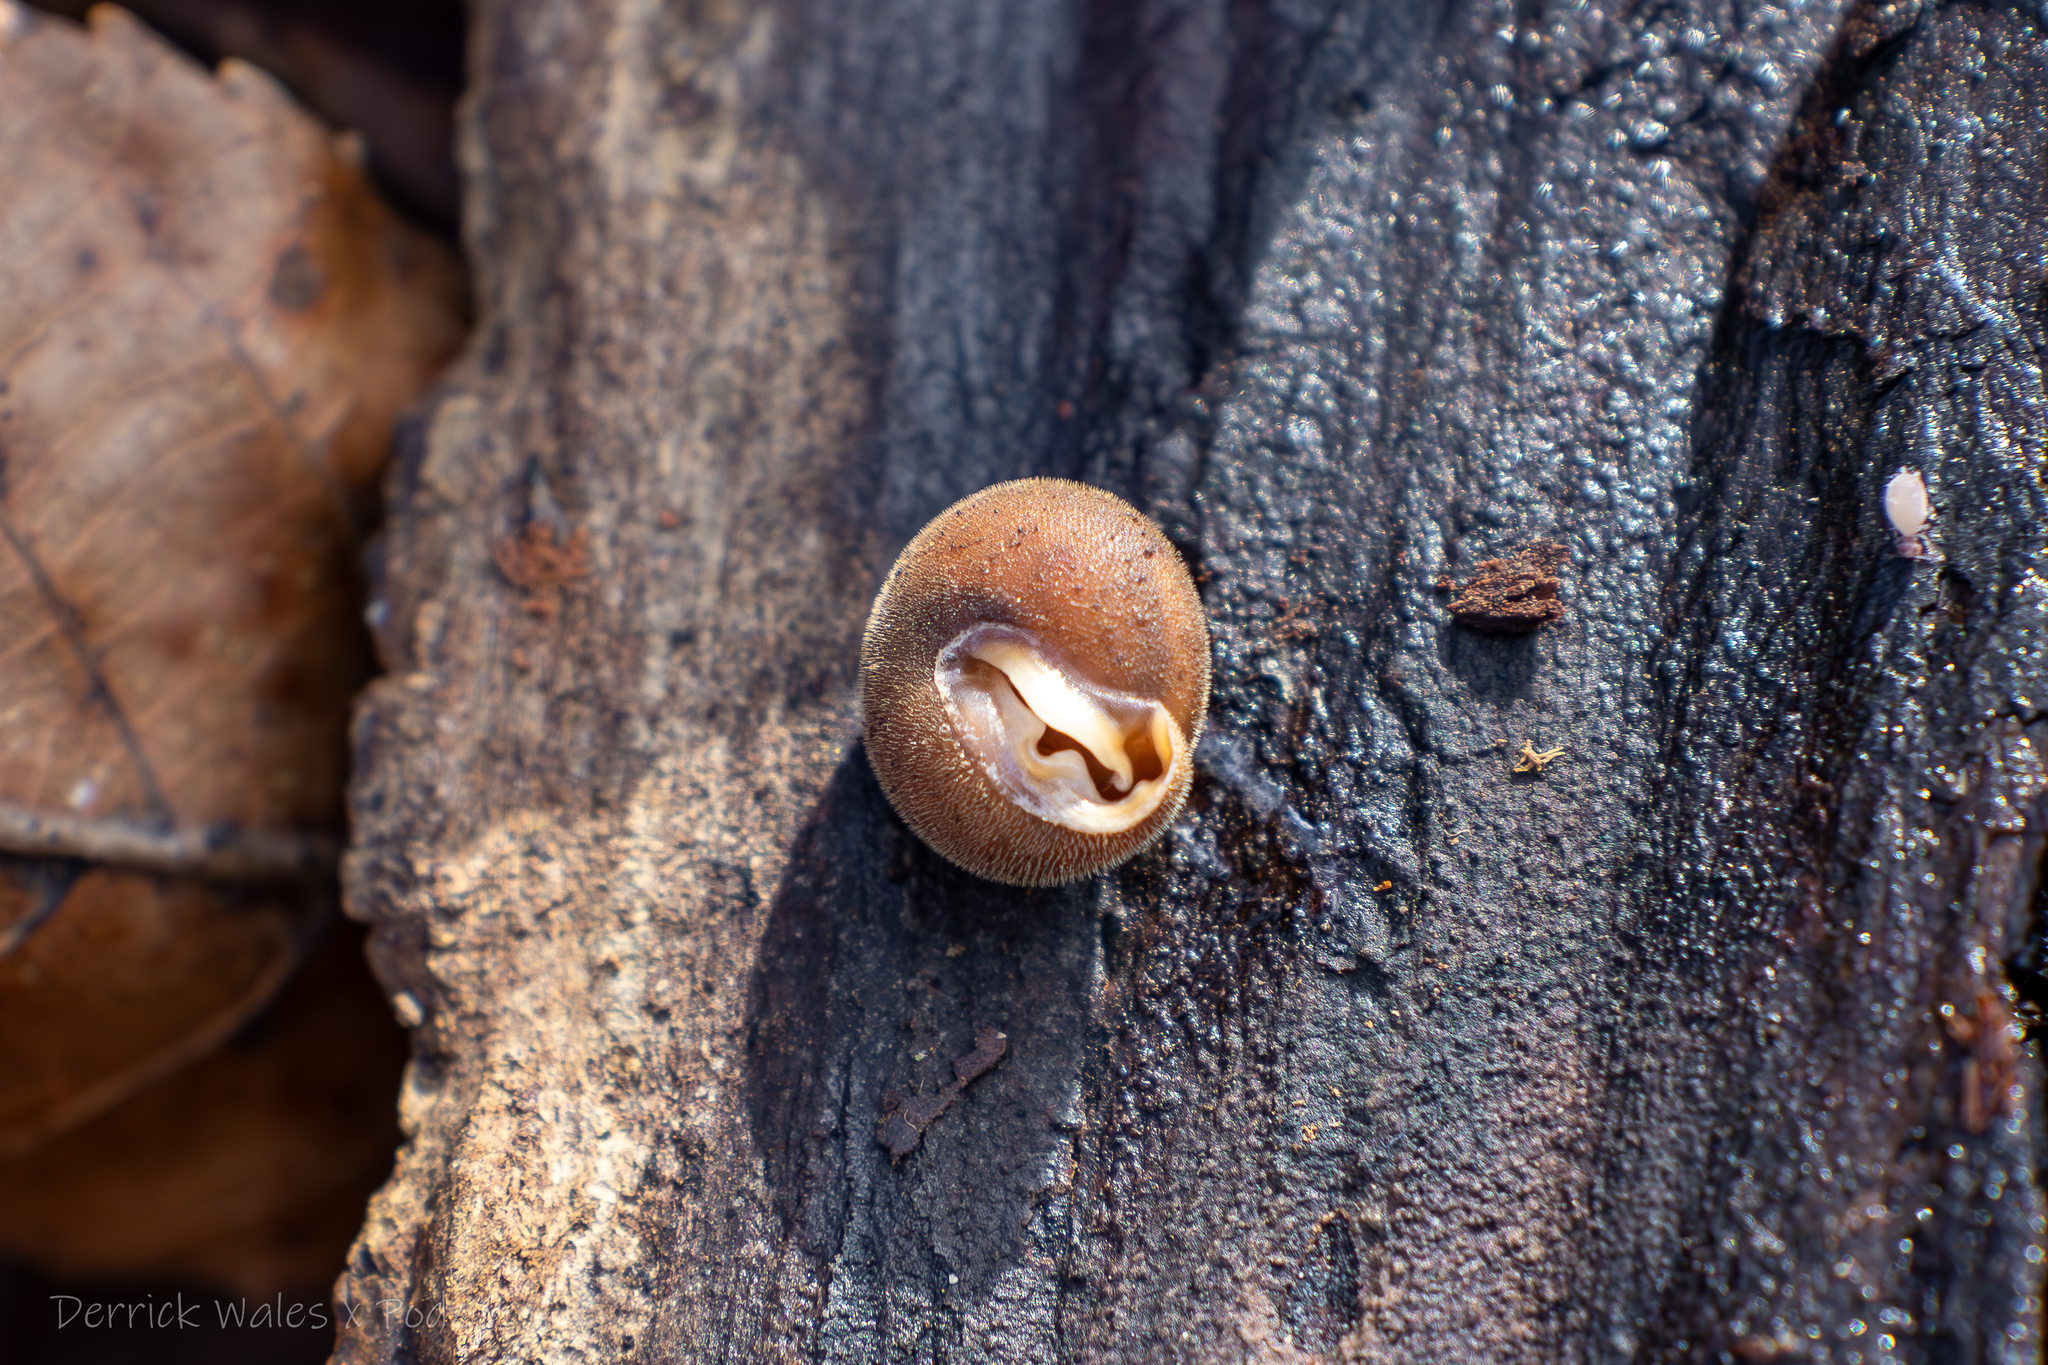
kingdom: Animalia
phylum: Mollusca
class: Gastropoda
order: Stylommatophora
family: Polygyridae
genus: Stenotrema
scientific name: Stenotrema deceptum
